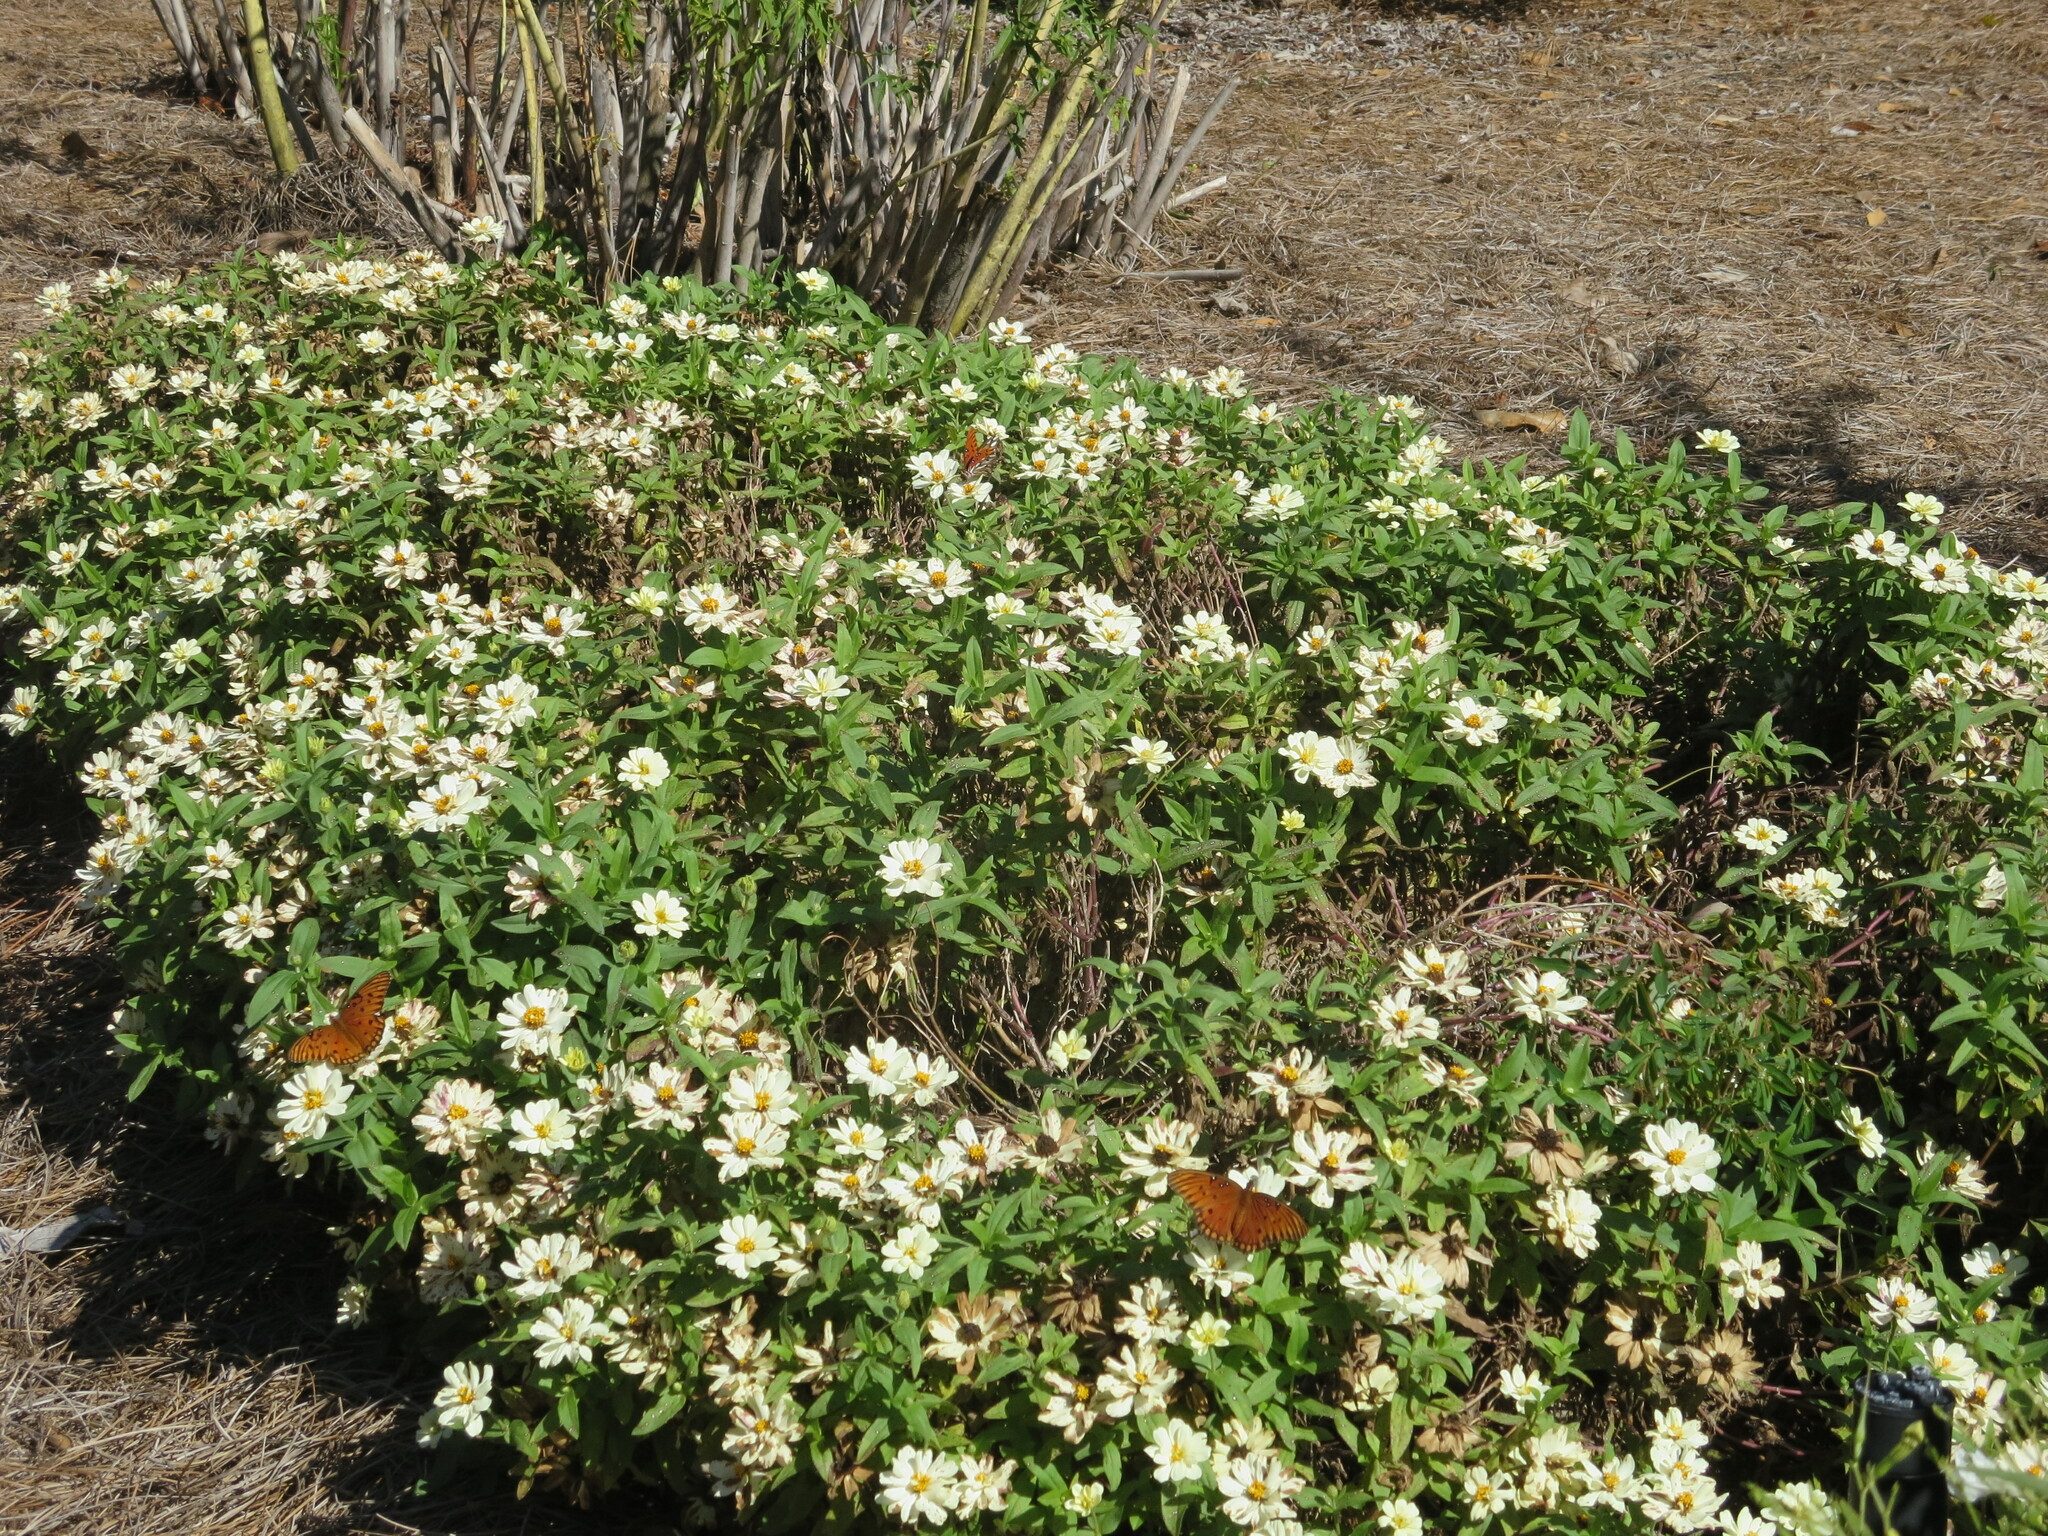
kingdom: Animalia
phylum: Arthropoda
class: Insecta
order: Lepidoptera
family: Nymphalidae
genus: Dione
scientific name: Dione vanillae
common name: Gulf fritillary
